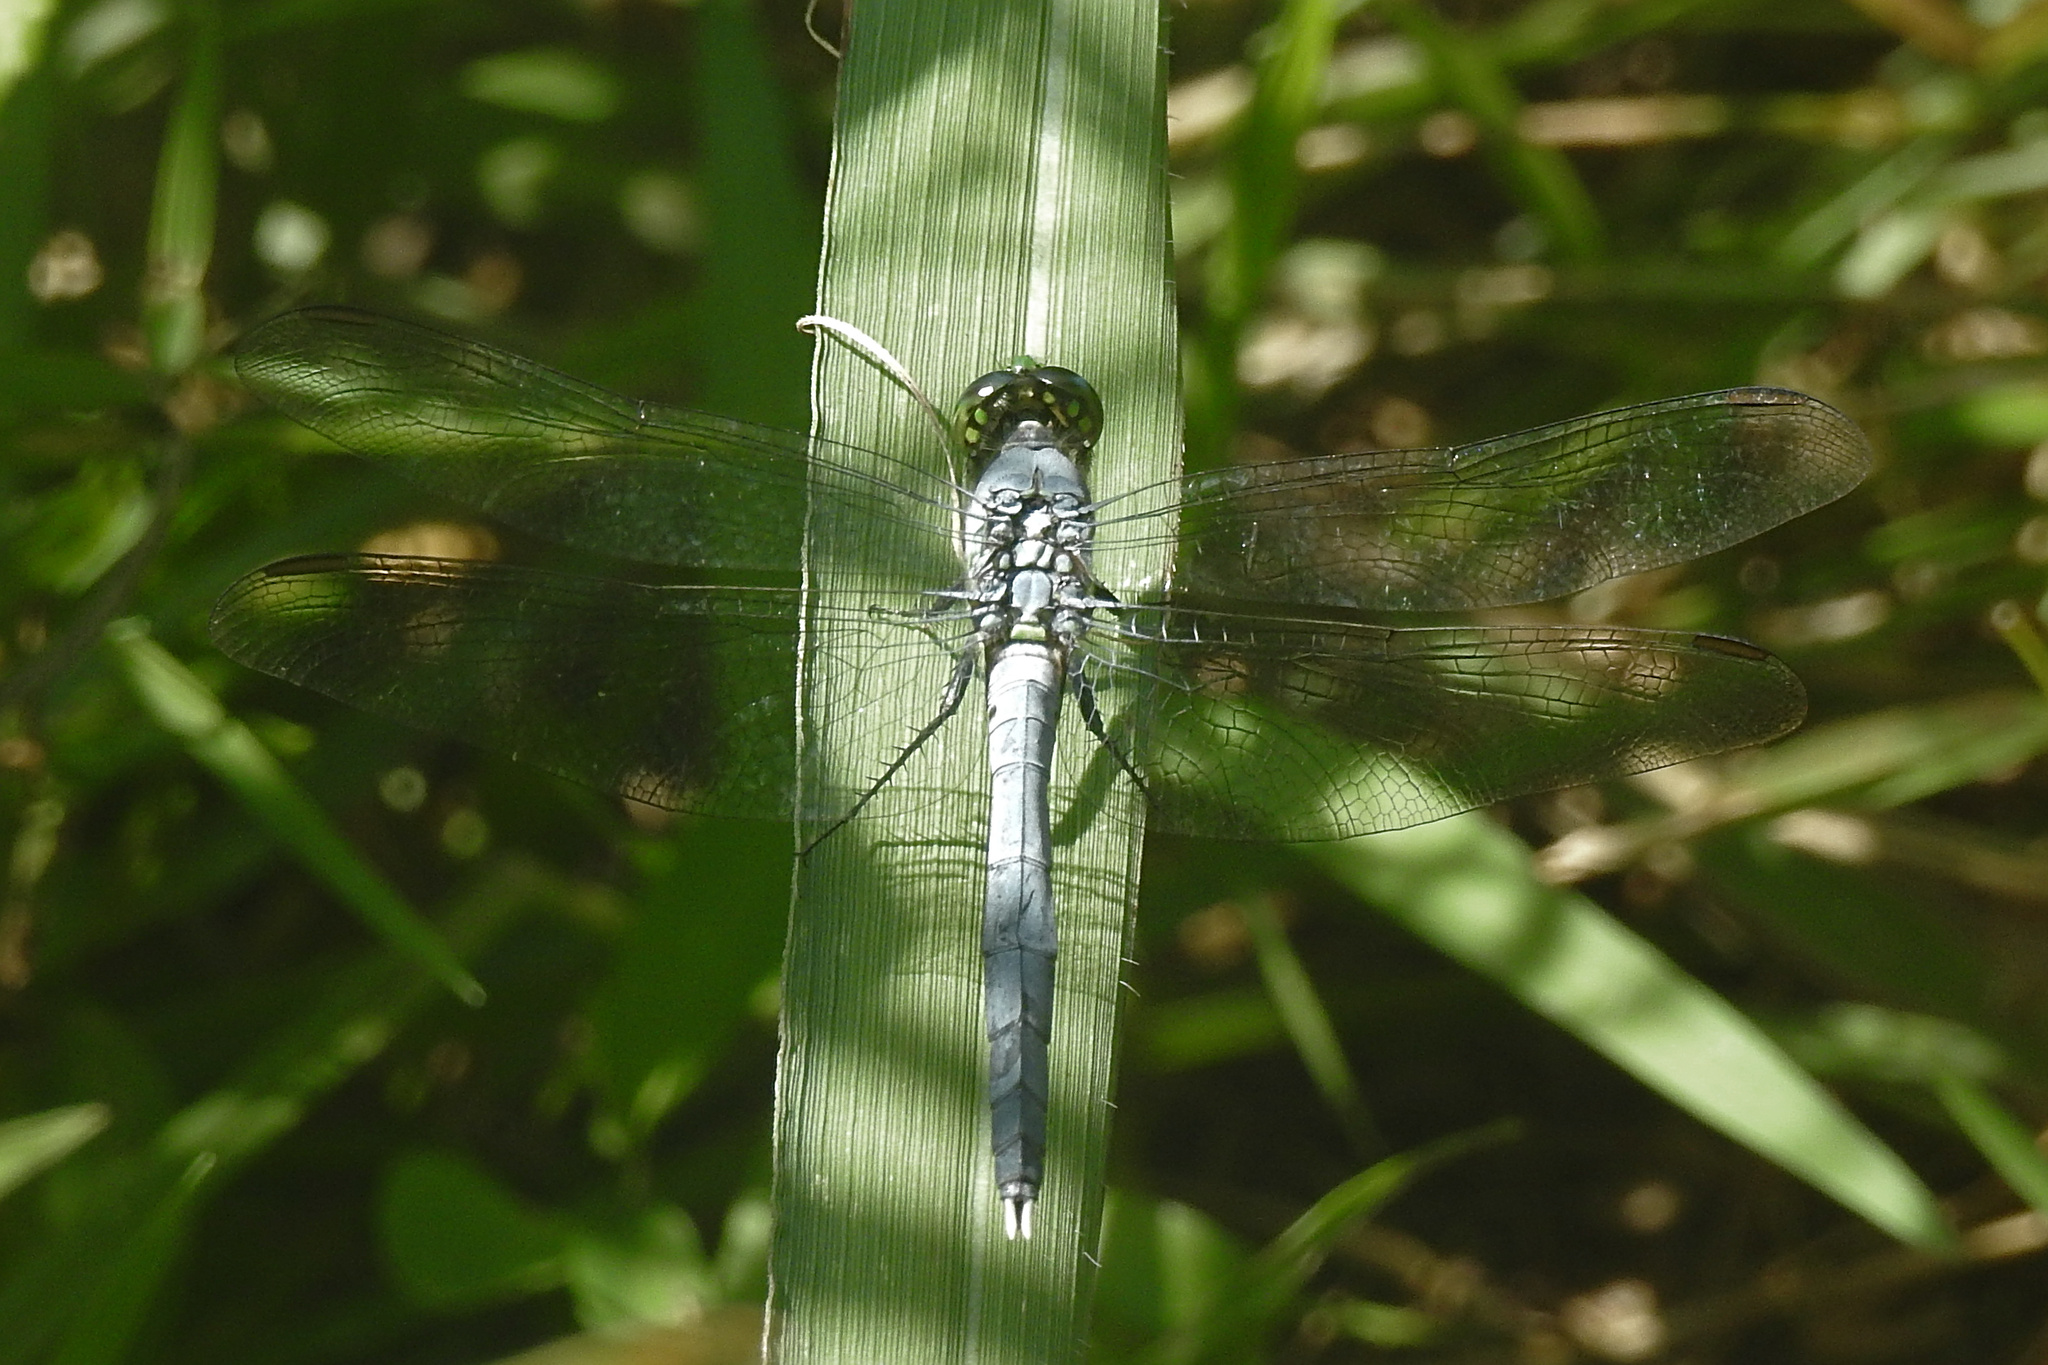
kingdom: Animalia
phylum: Arthropoda
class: Insecta
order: Odonata
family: Libellulidae
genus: Erythemis
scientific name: Erythemis simplicicollis
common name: Eastern pondhawk
